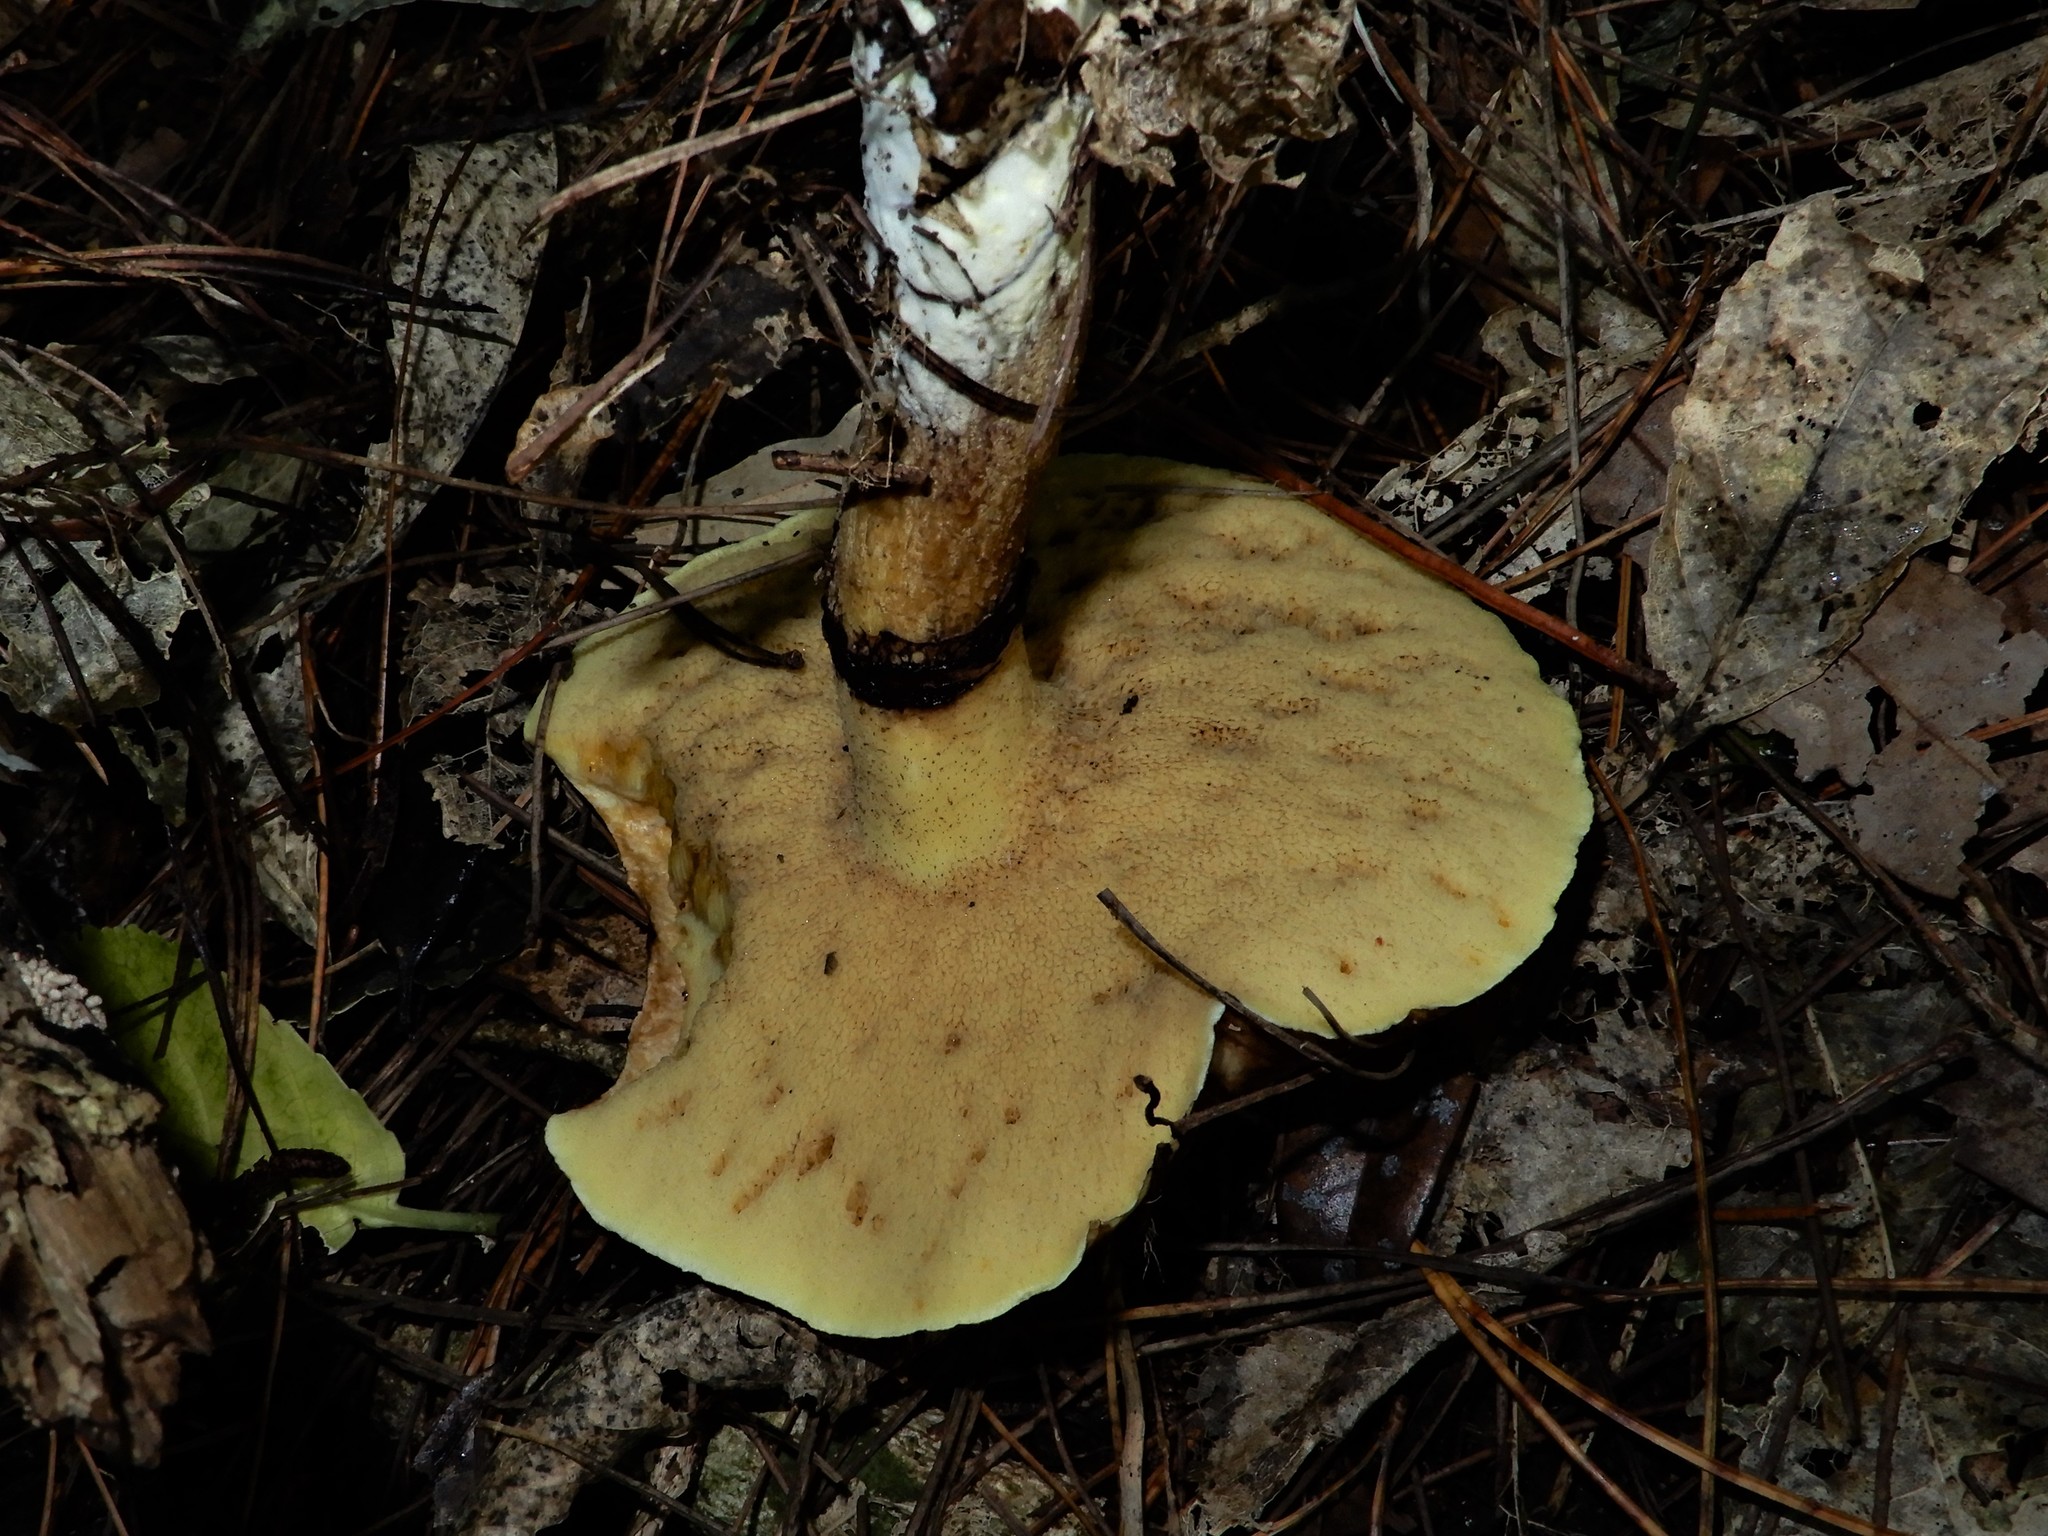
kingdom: Fungi
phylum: Basidiomycota
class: Agaricomycetes
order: Boletales
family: Suillaceae
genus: Suillus
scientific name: Suillus luteus
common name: Slippery jack
